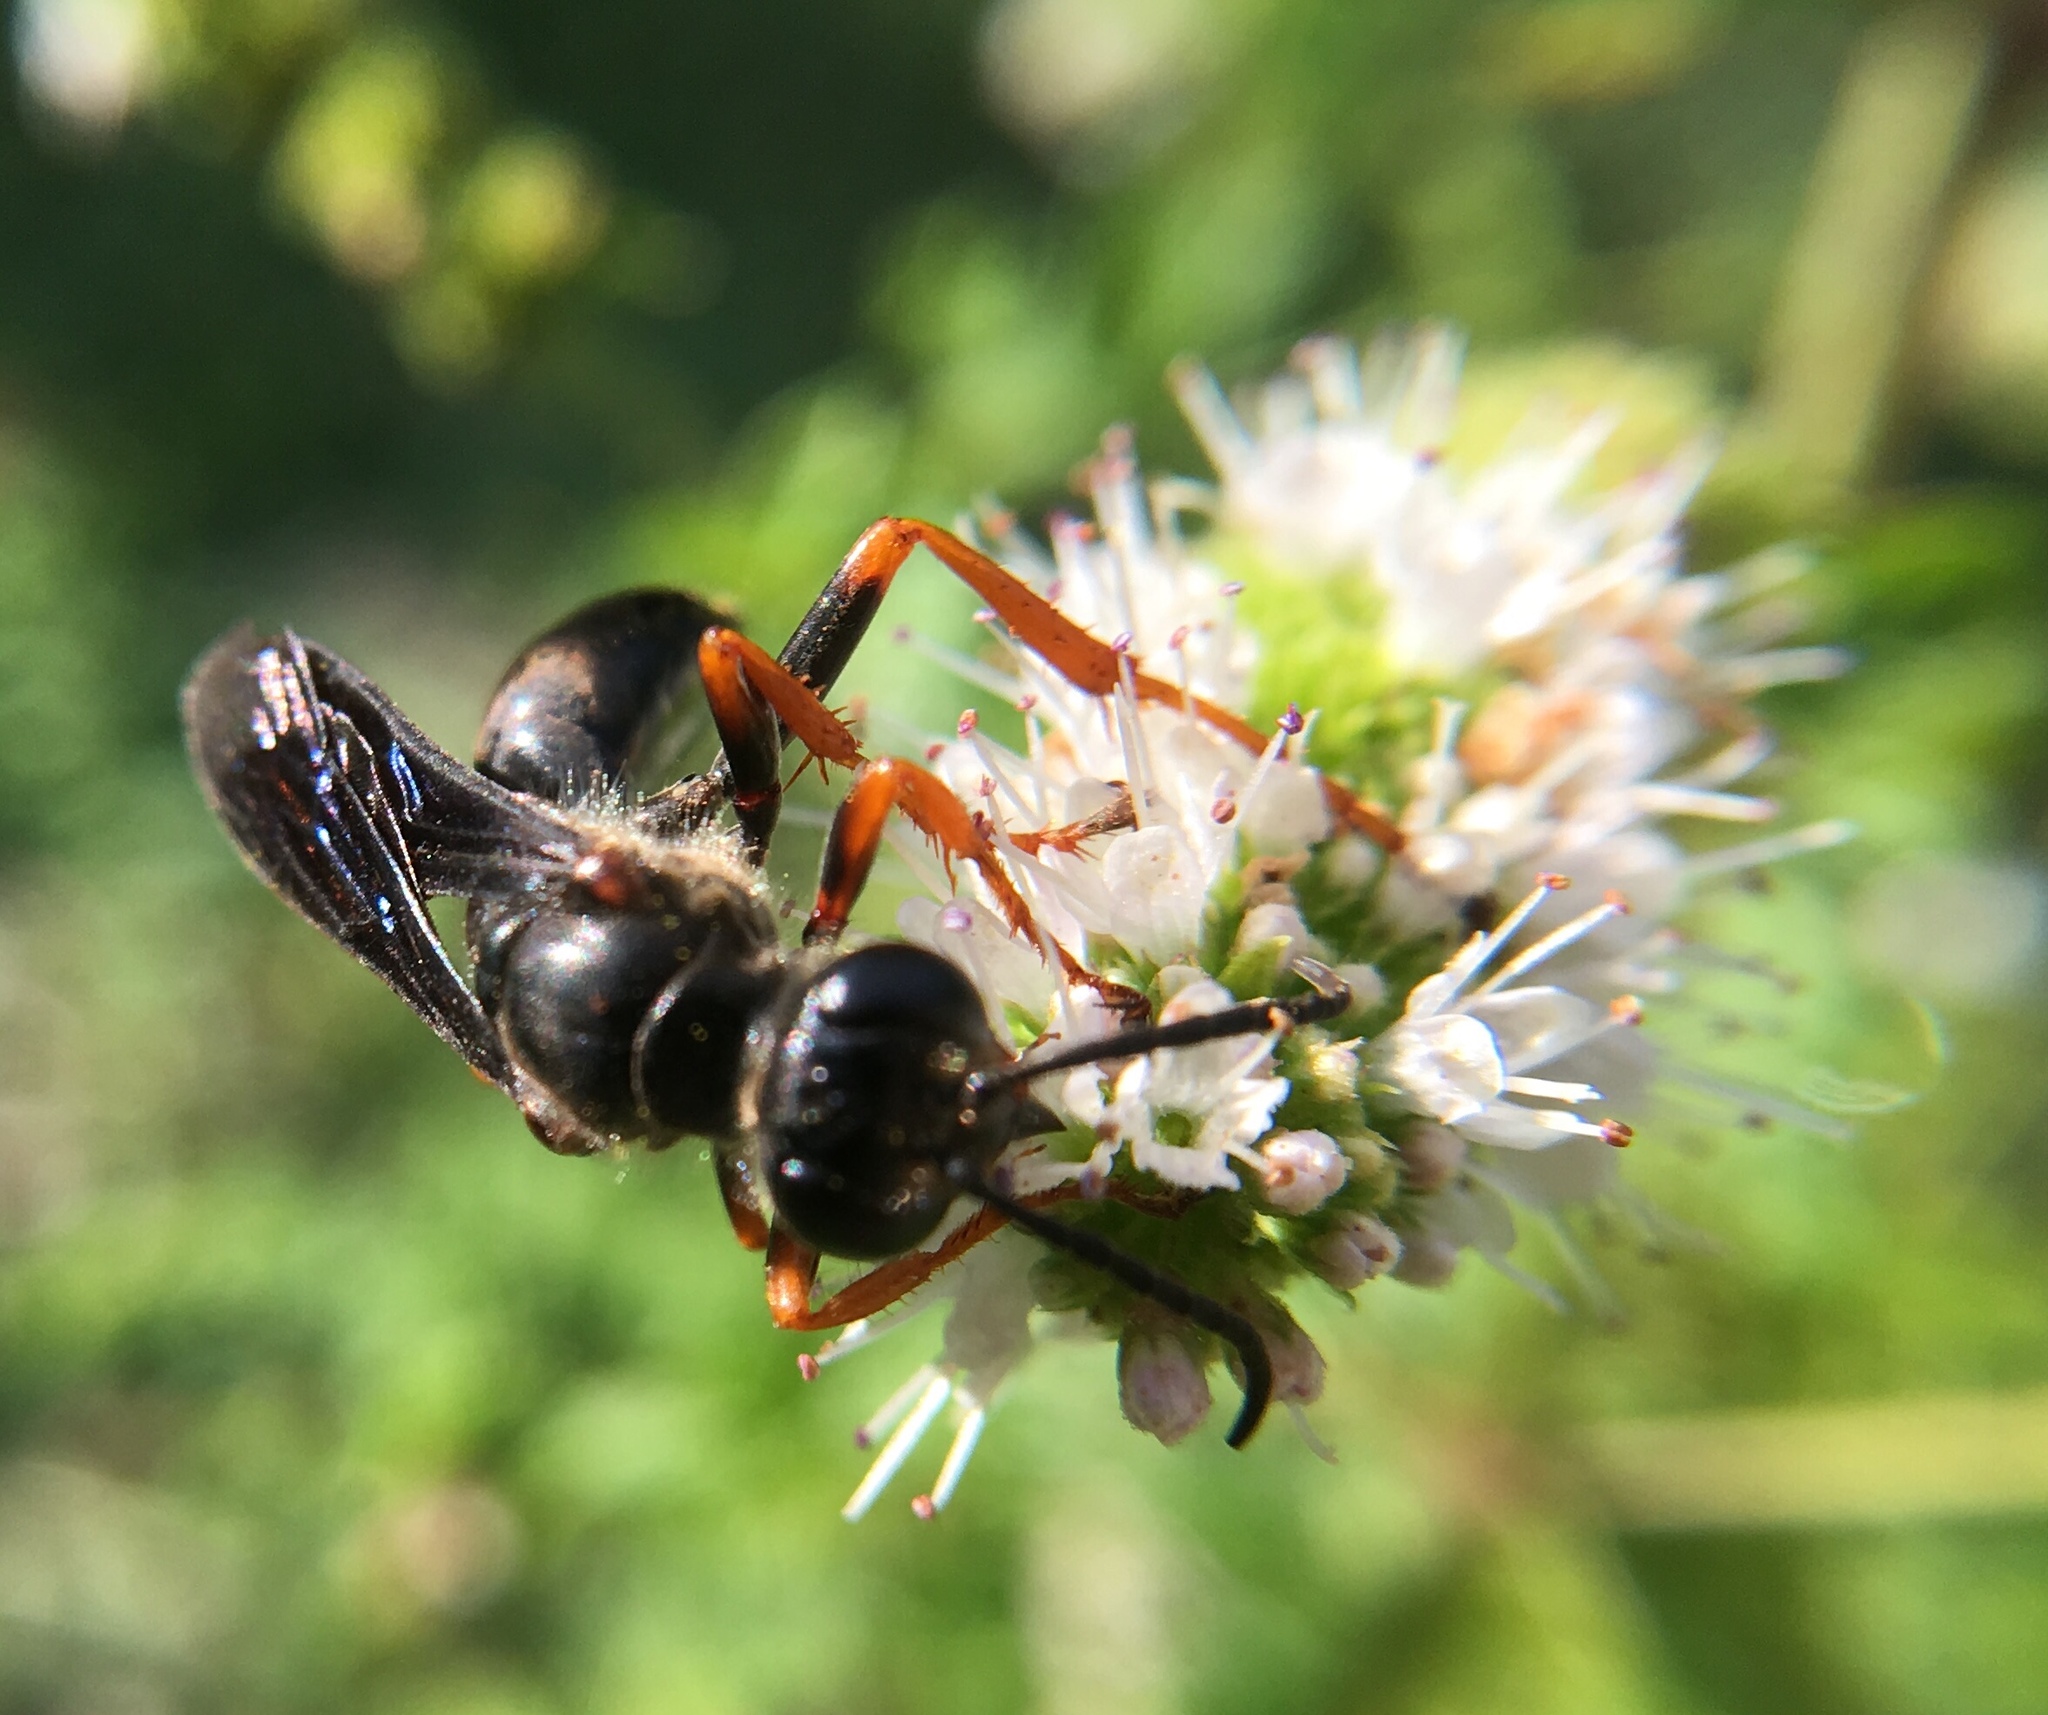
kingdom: Animalia
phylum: Arthropoda
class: Insecta
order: Hymenoptera
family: Sphecidae
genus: Sphex
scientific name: Sphex nudus
